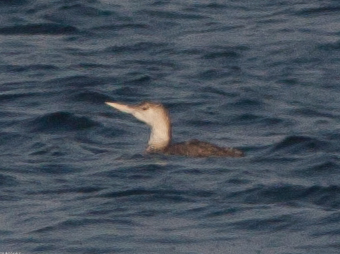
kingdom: Animalia
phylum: Chordata
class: Aves
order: Gaviiformes
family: Gaviidae
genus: Gavia
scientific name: Gavia adamsii
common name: Yellow-billed loon
